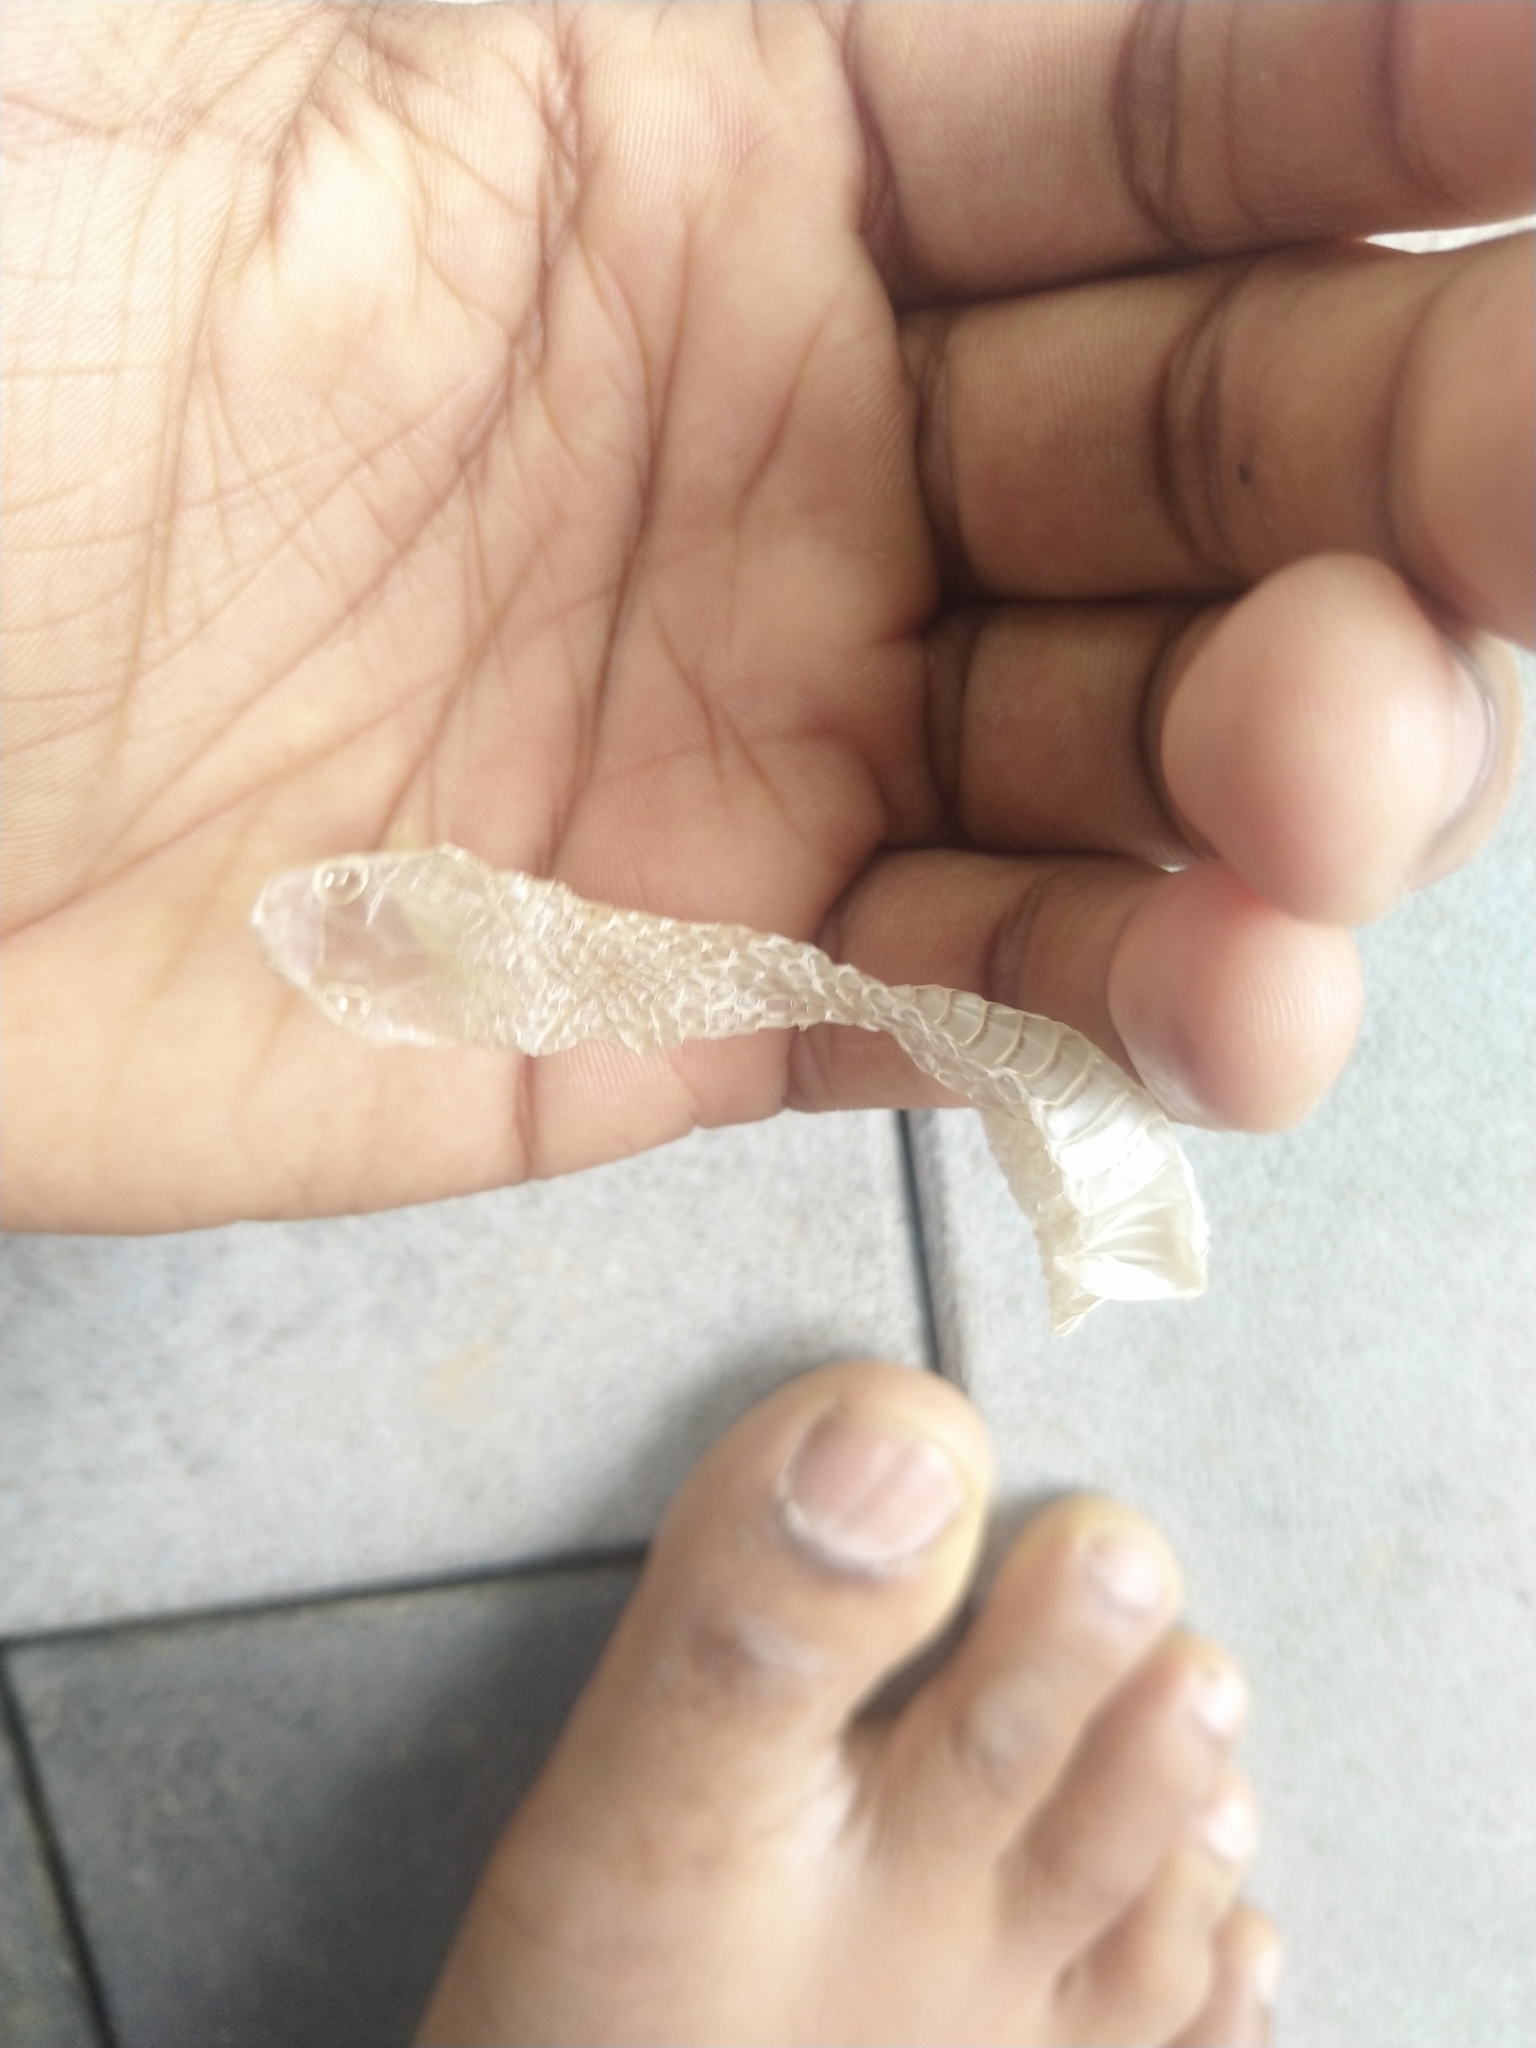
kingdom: Animalia
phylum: Chordata
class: Squamata
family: Colubridae
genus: Lycodon
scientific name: Lycodon
